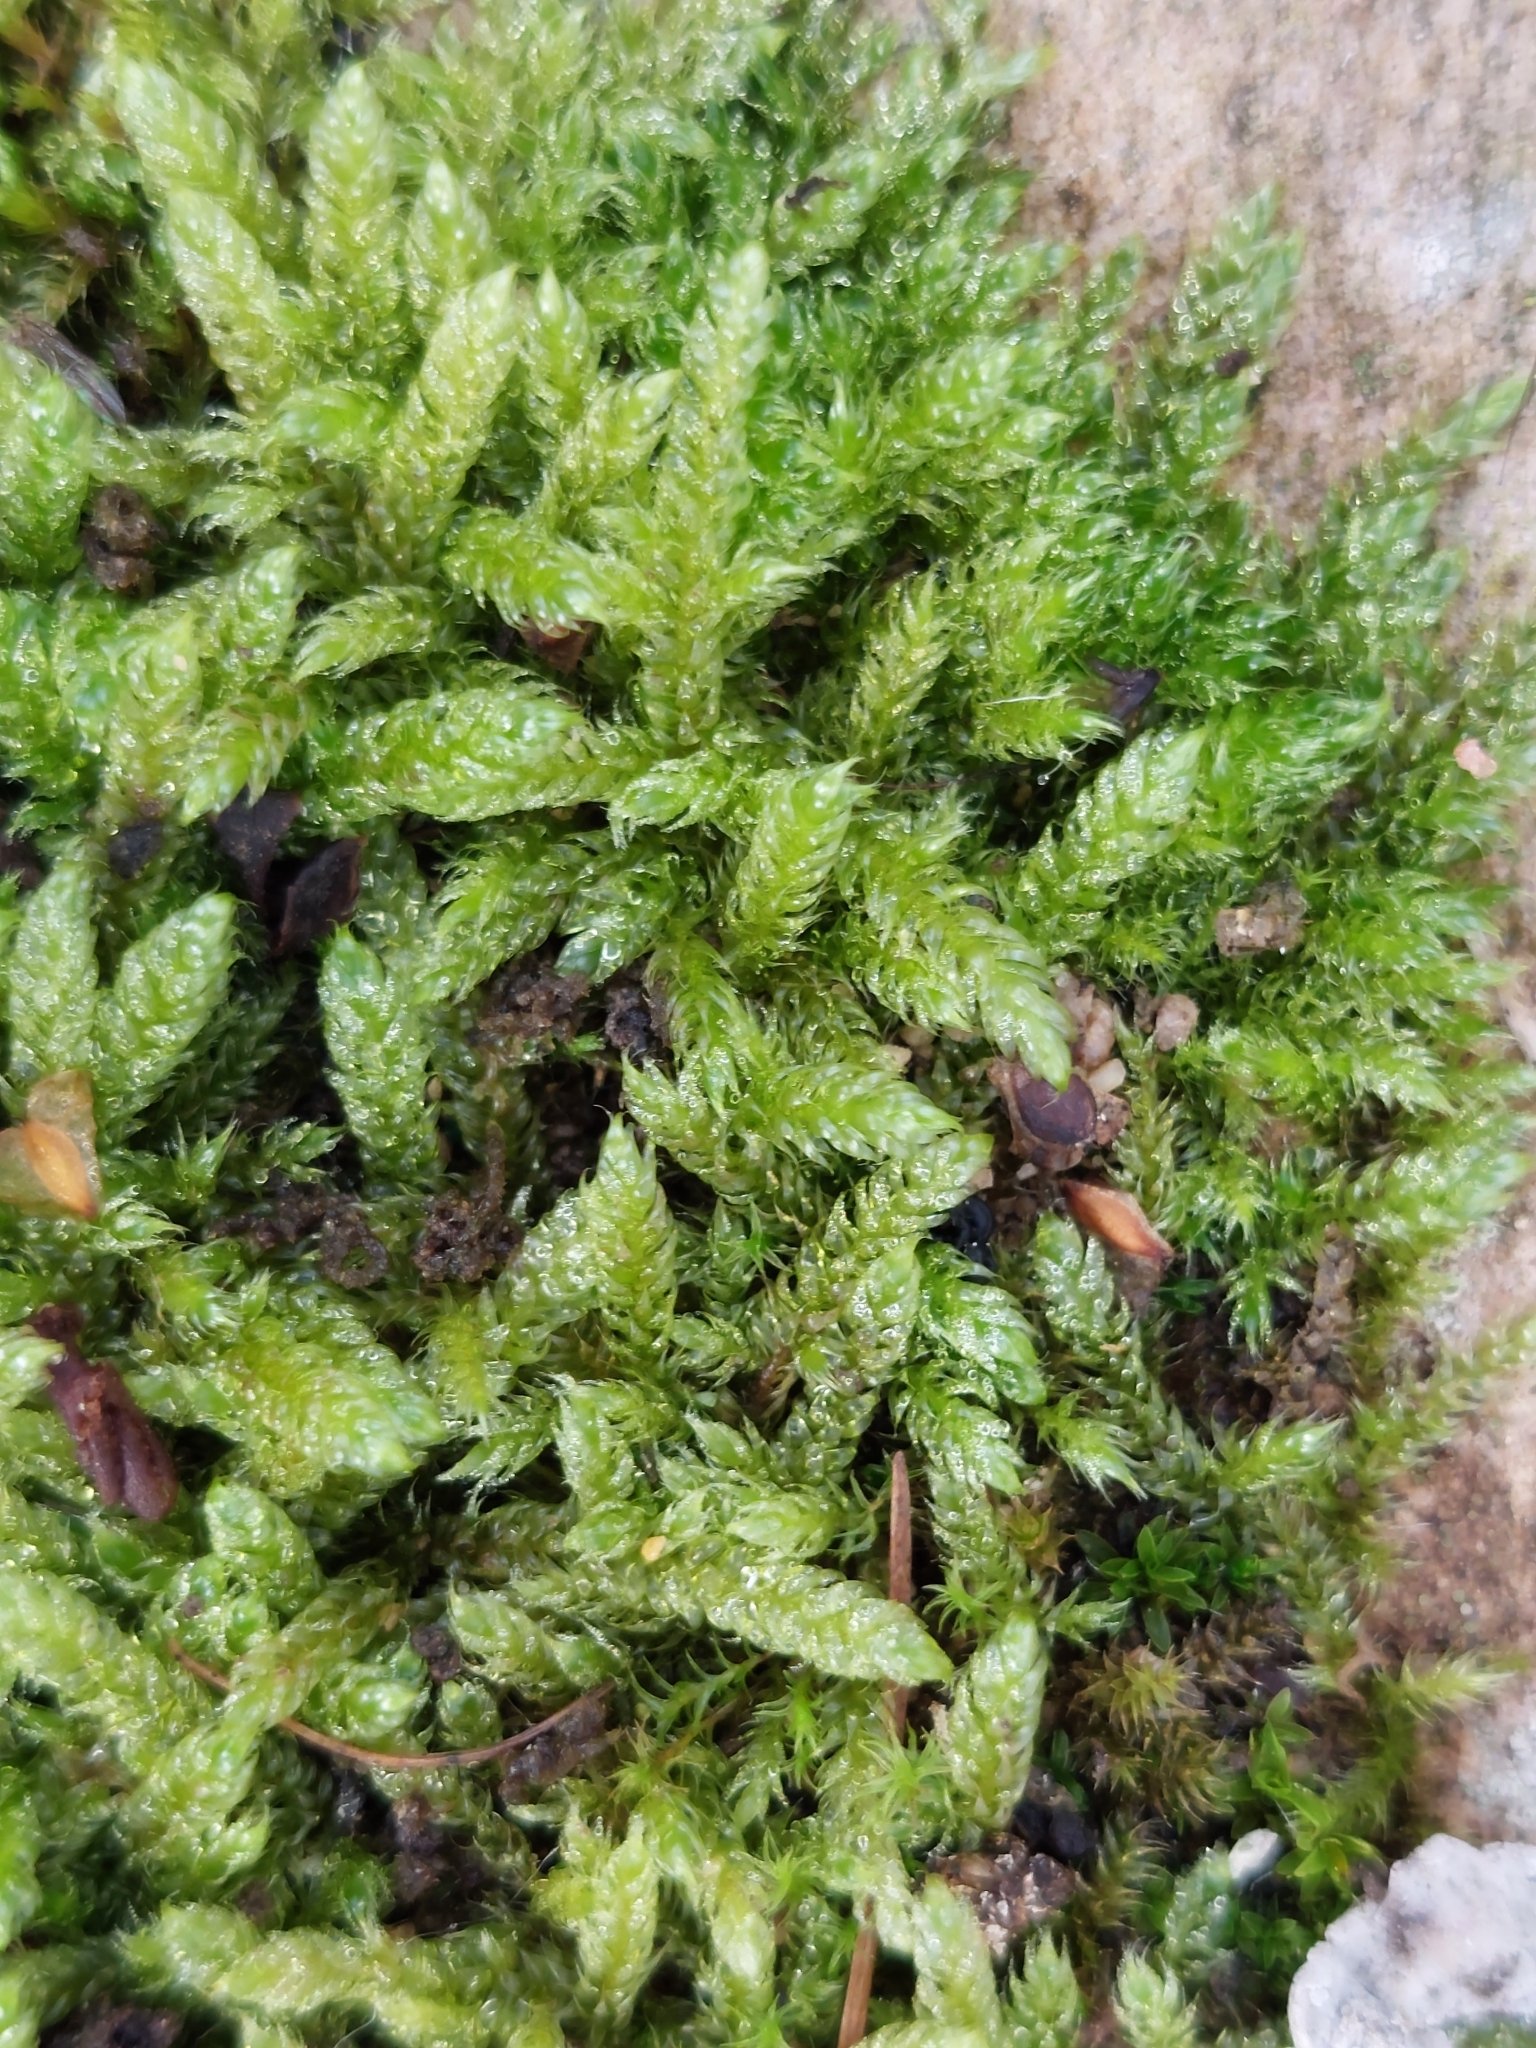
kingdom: Plantae
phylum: Bryophyta
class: Bryopsida
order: Hypnales
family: Hypnaceae
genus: Hypnum
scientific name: Hypnum cupressiforme
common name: Cypress-leaved plait-moss
